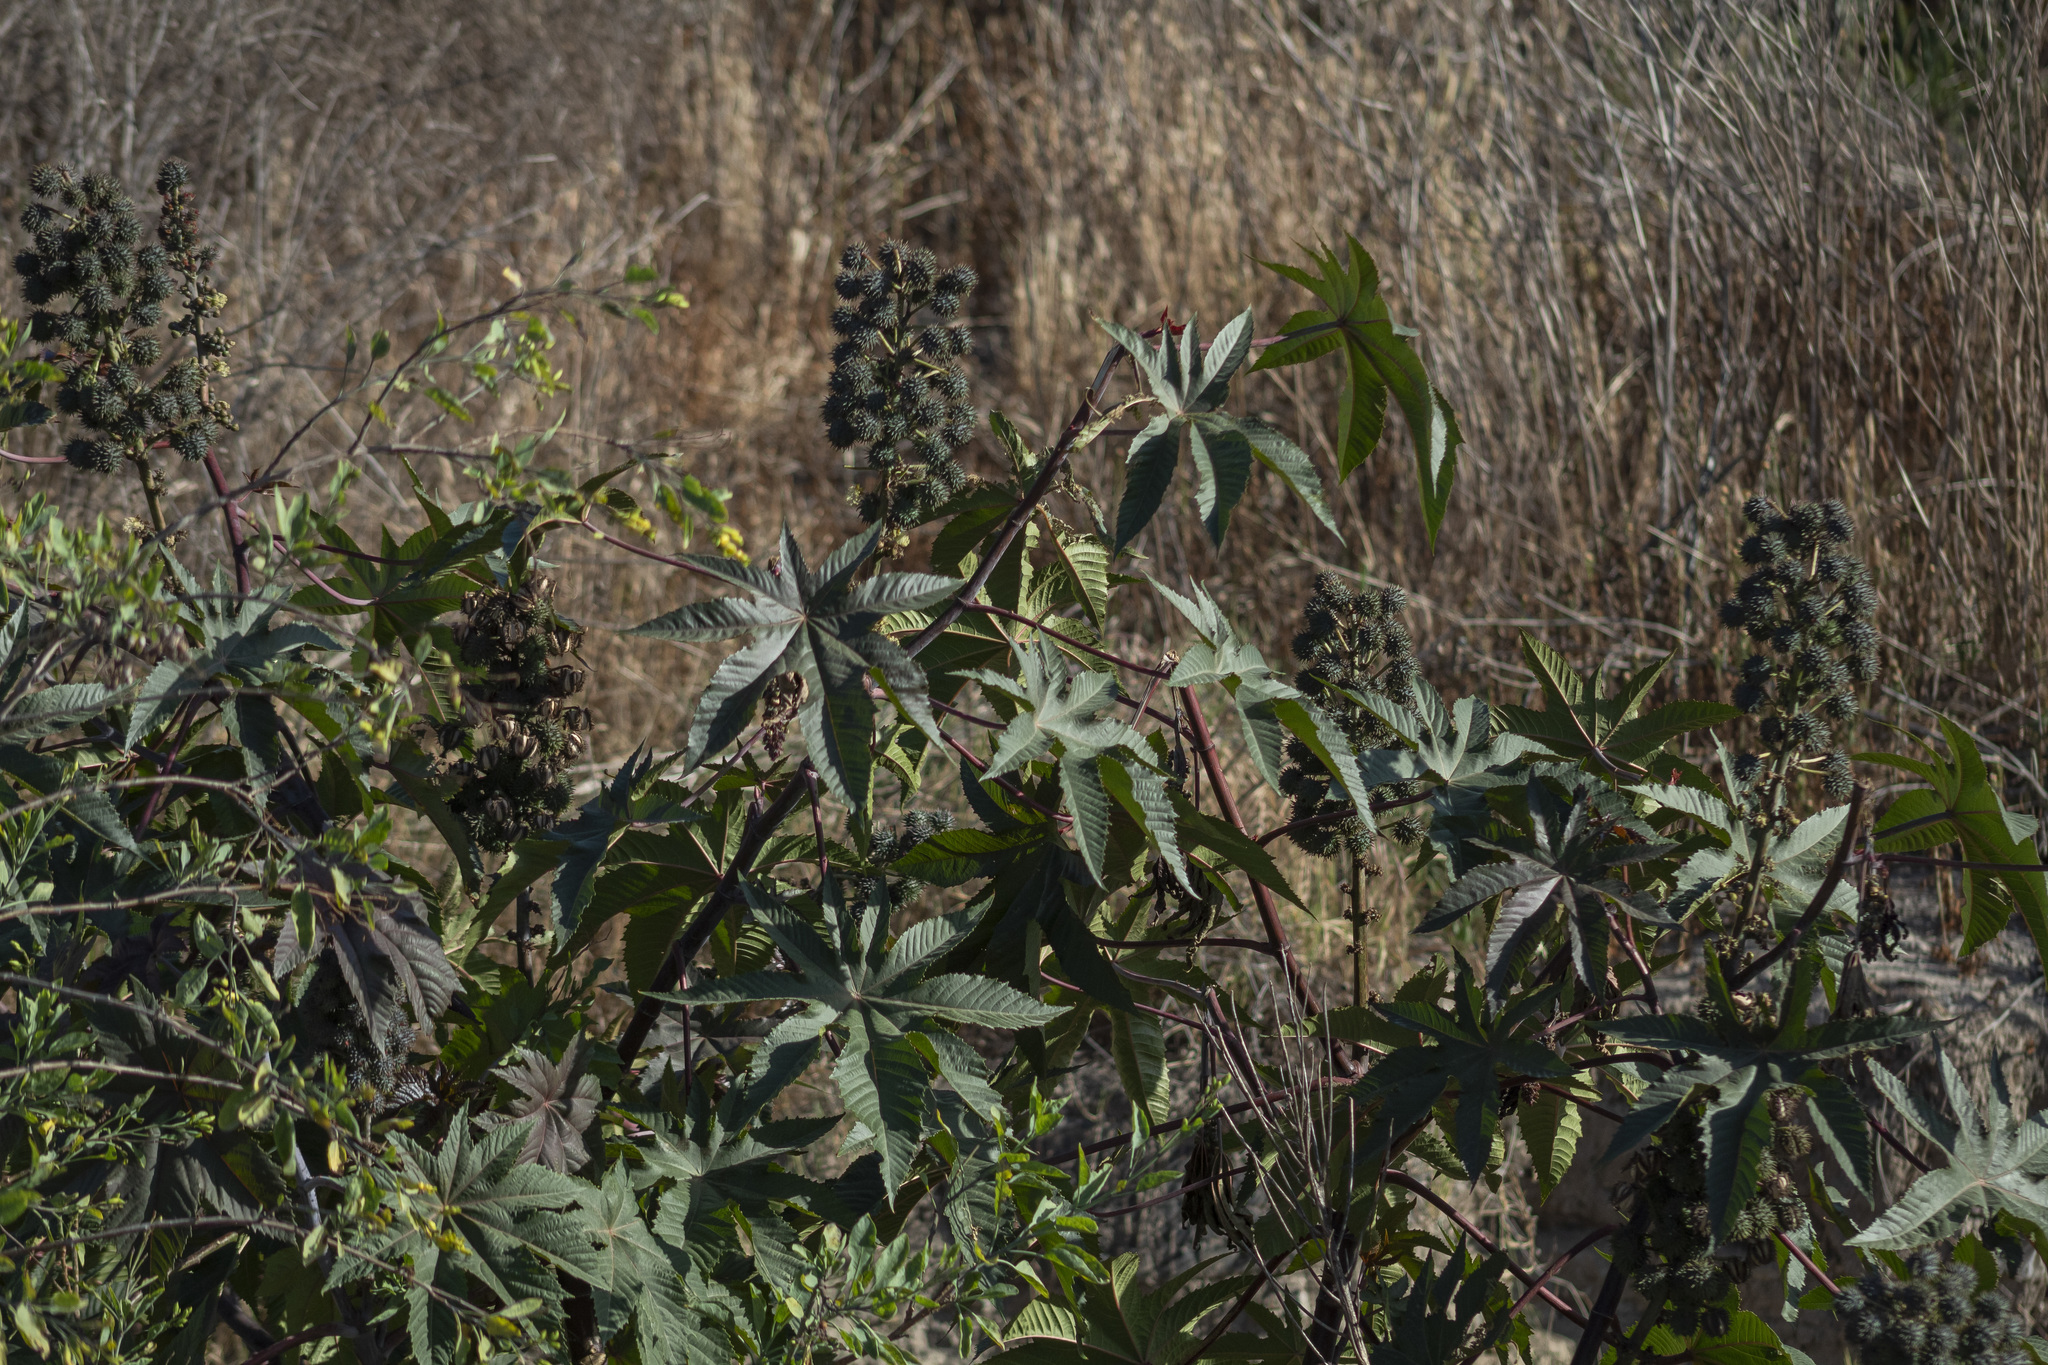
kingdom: Plantae
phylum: Tracheophyta
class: Magnoliopsida
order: Malpighiales
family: Euphorbiaceae
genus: Ricinus
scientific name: Ricinus communis
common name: Castor-oil-plant
